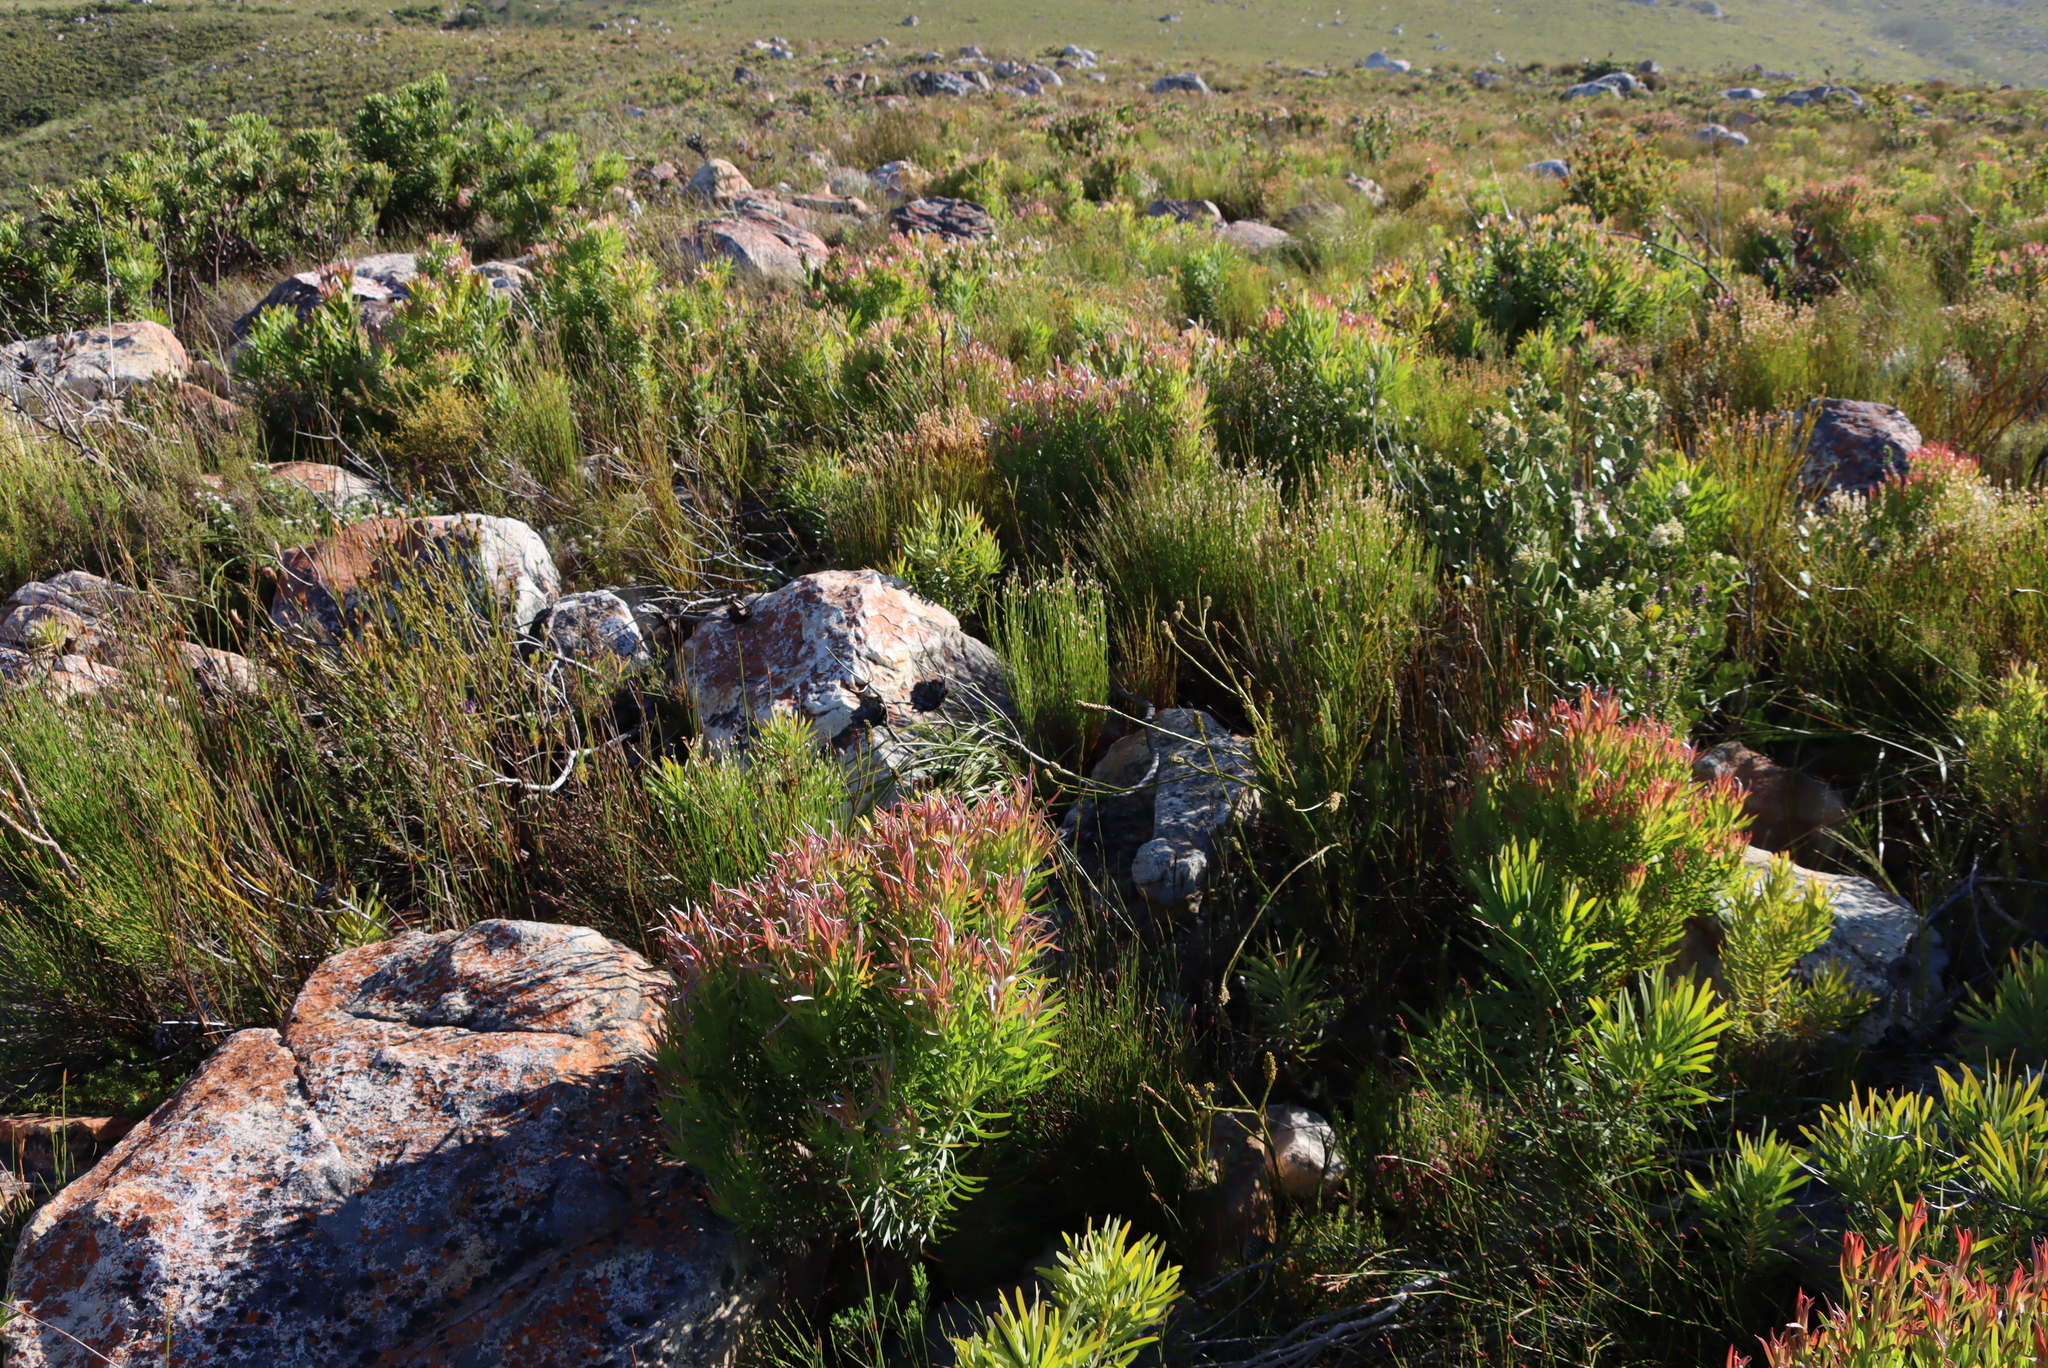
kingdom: Plantae
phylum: Tracheophyta
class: Magnoliopsida
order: Proteales
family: Proteaceae
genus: Leucadendron
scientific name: Leucadendron xanthoconus
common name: Sickle-leaf conebush
